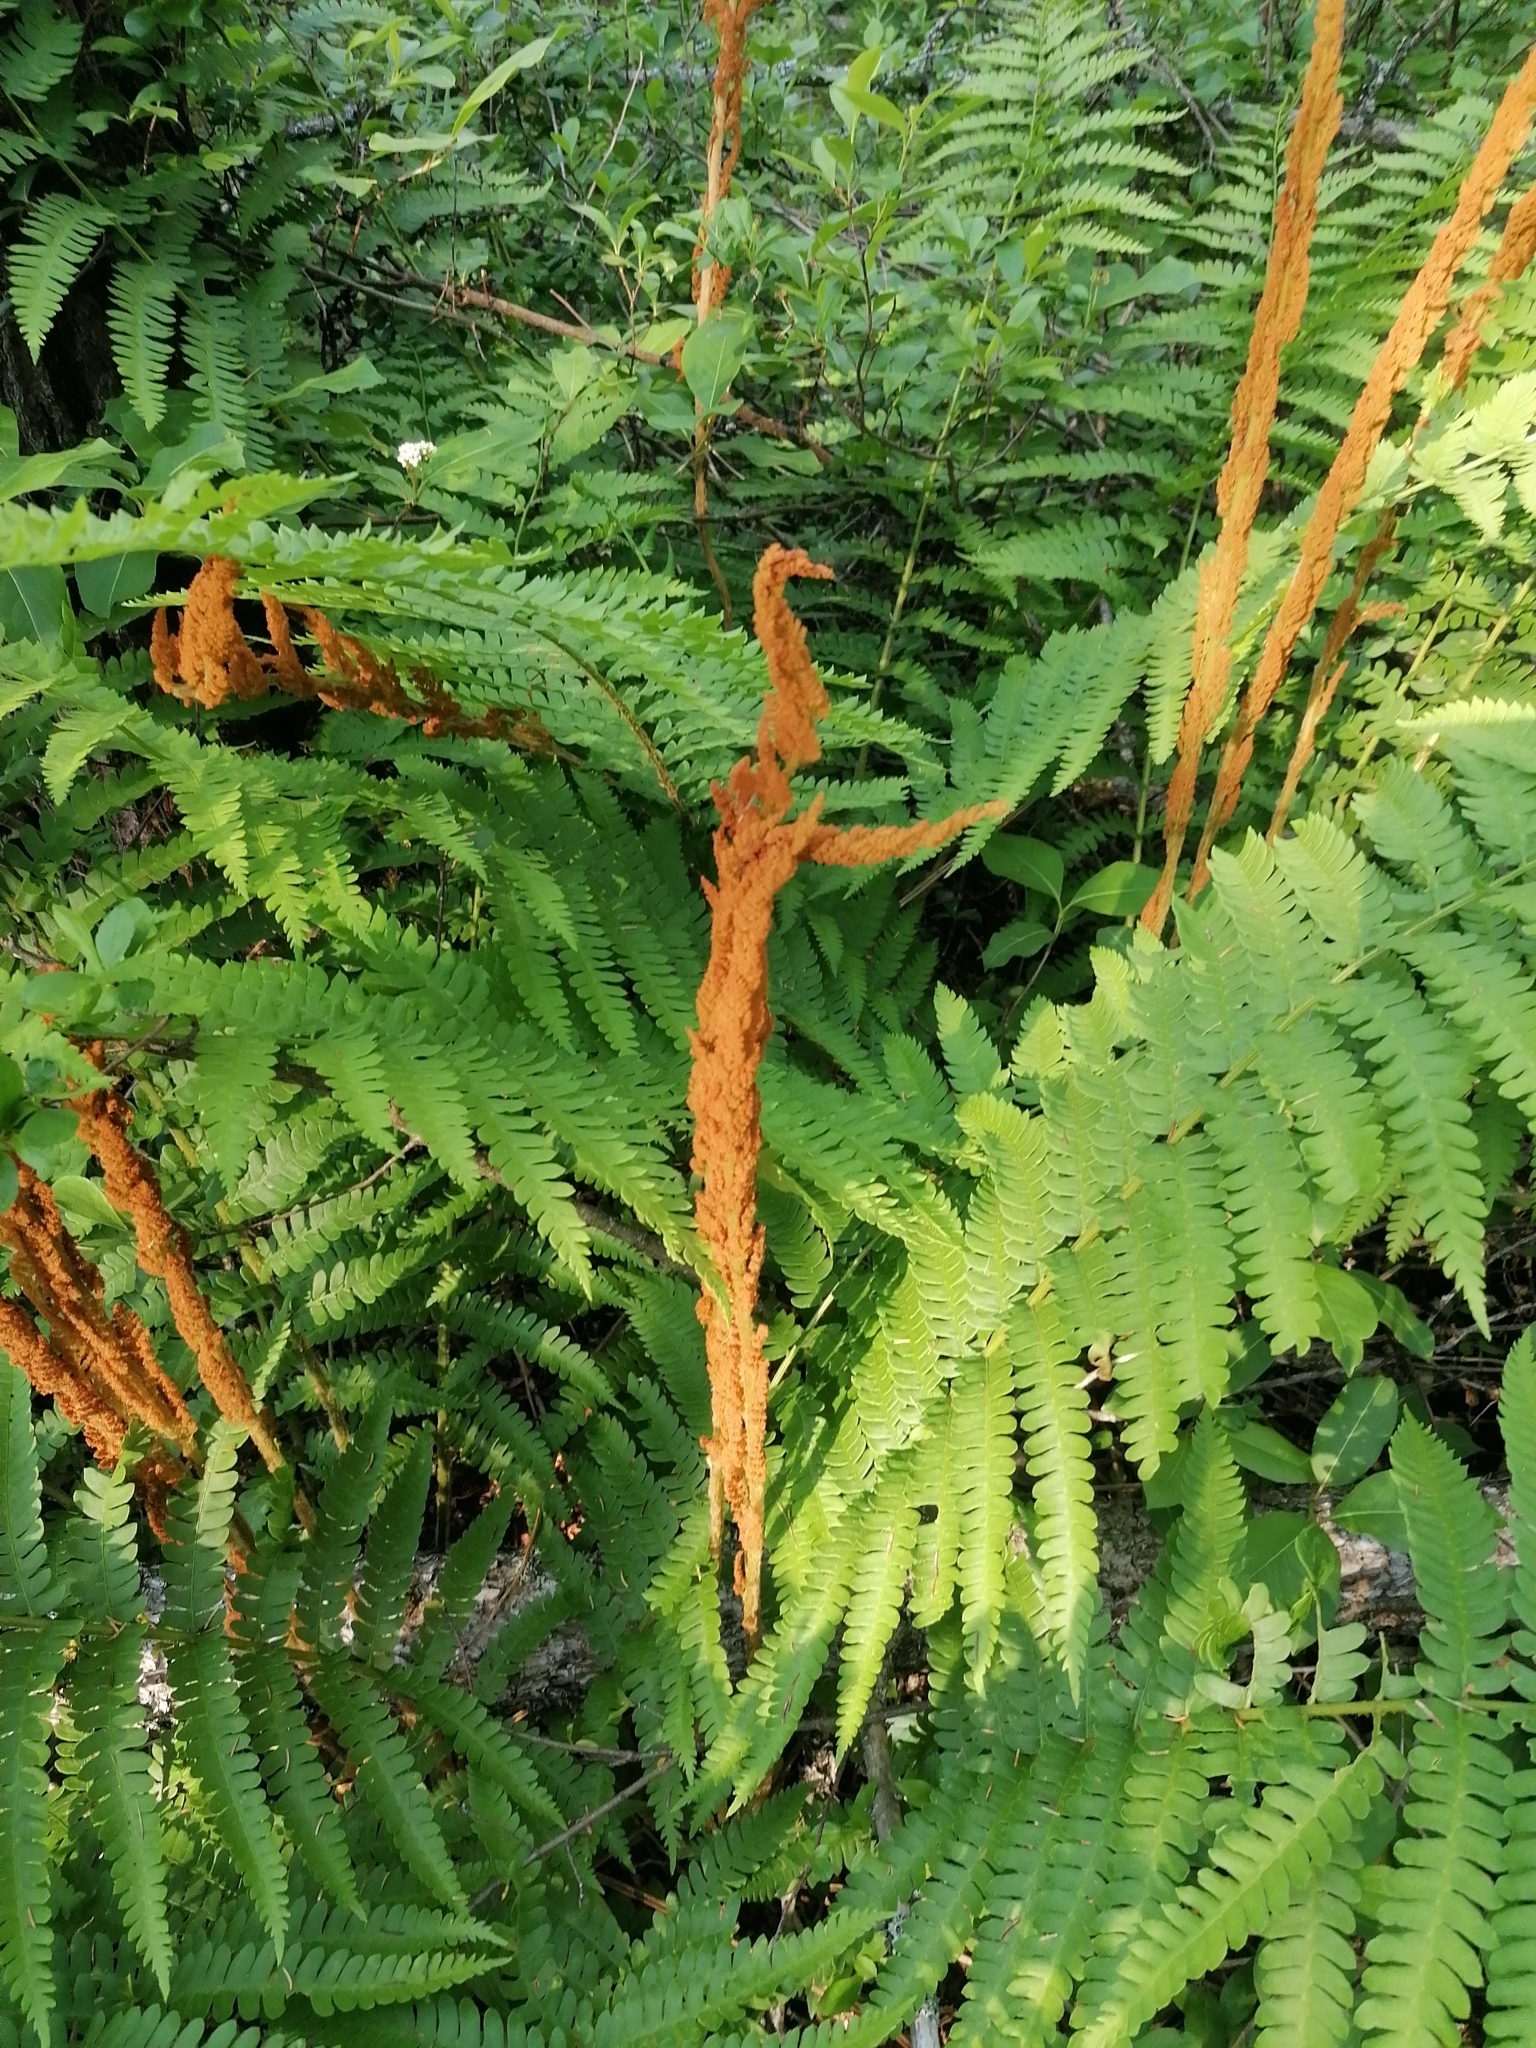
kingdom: Plantae
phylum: Tracheophyta
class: Polypodiopsida
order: Osmundales
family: Osmundaceae
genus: Osmundastrum
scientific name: Osmundastrum cinnamomeum
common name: Cinnamon fern
